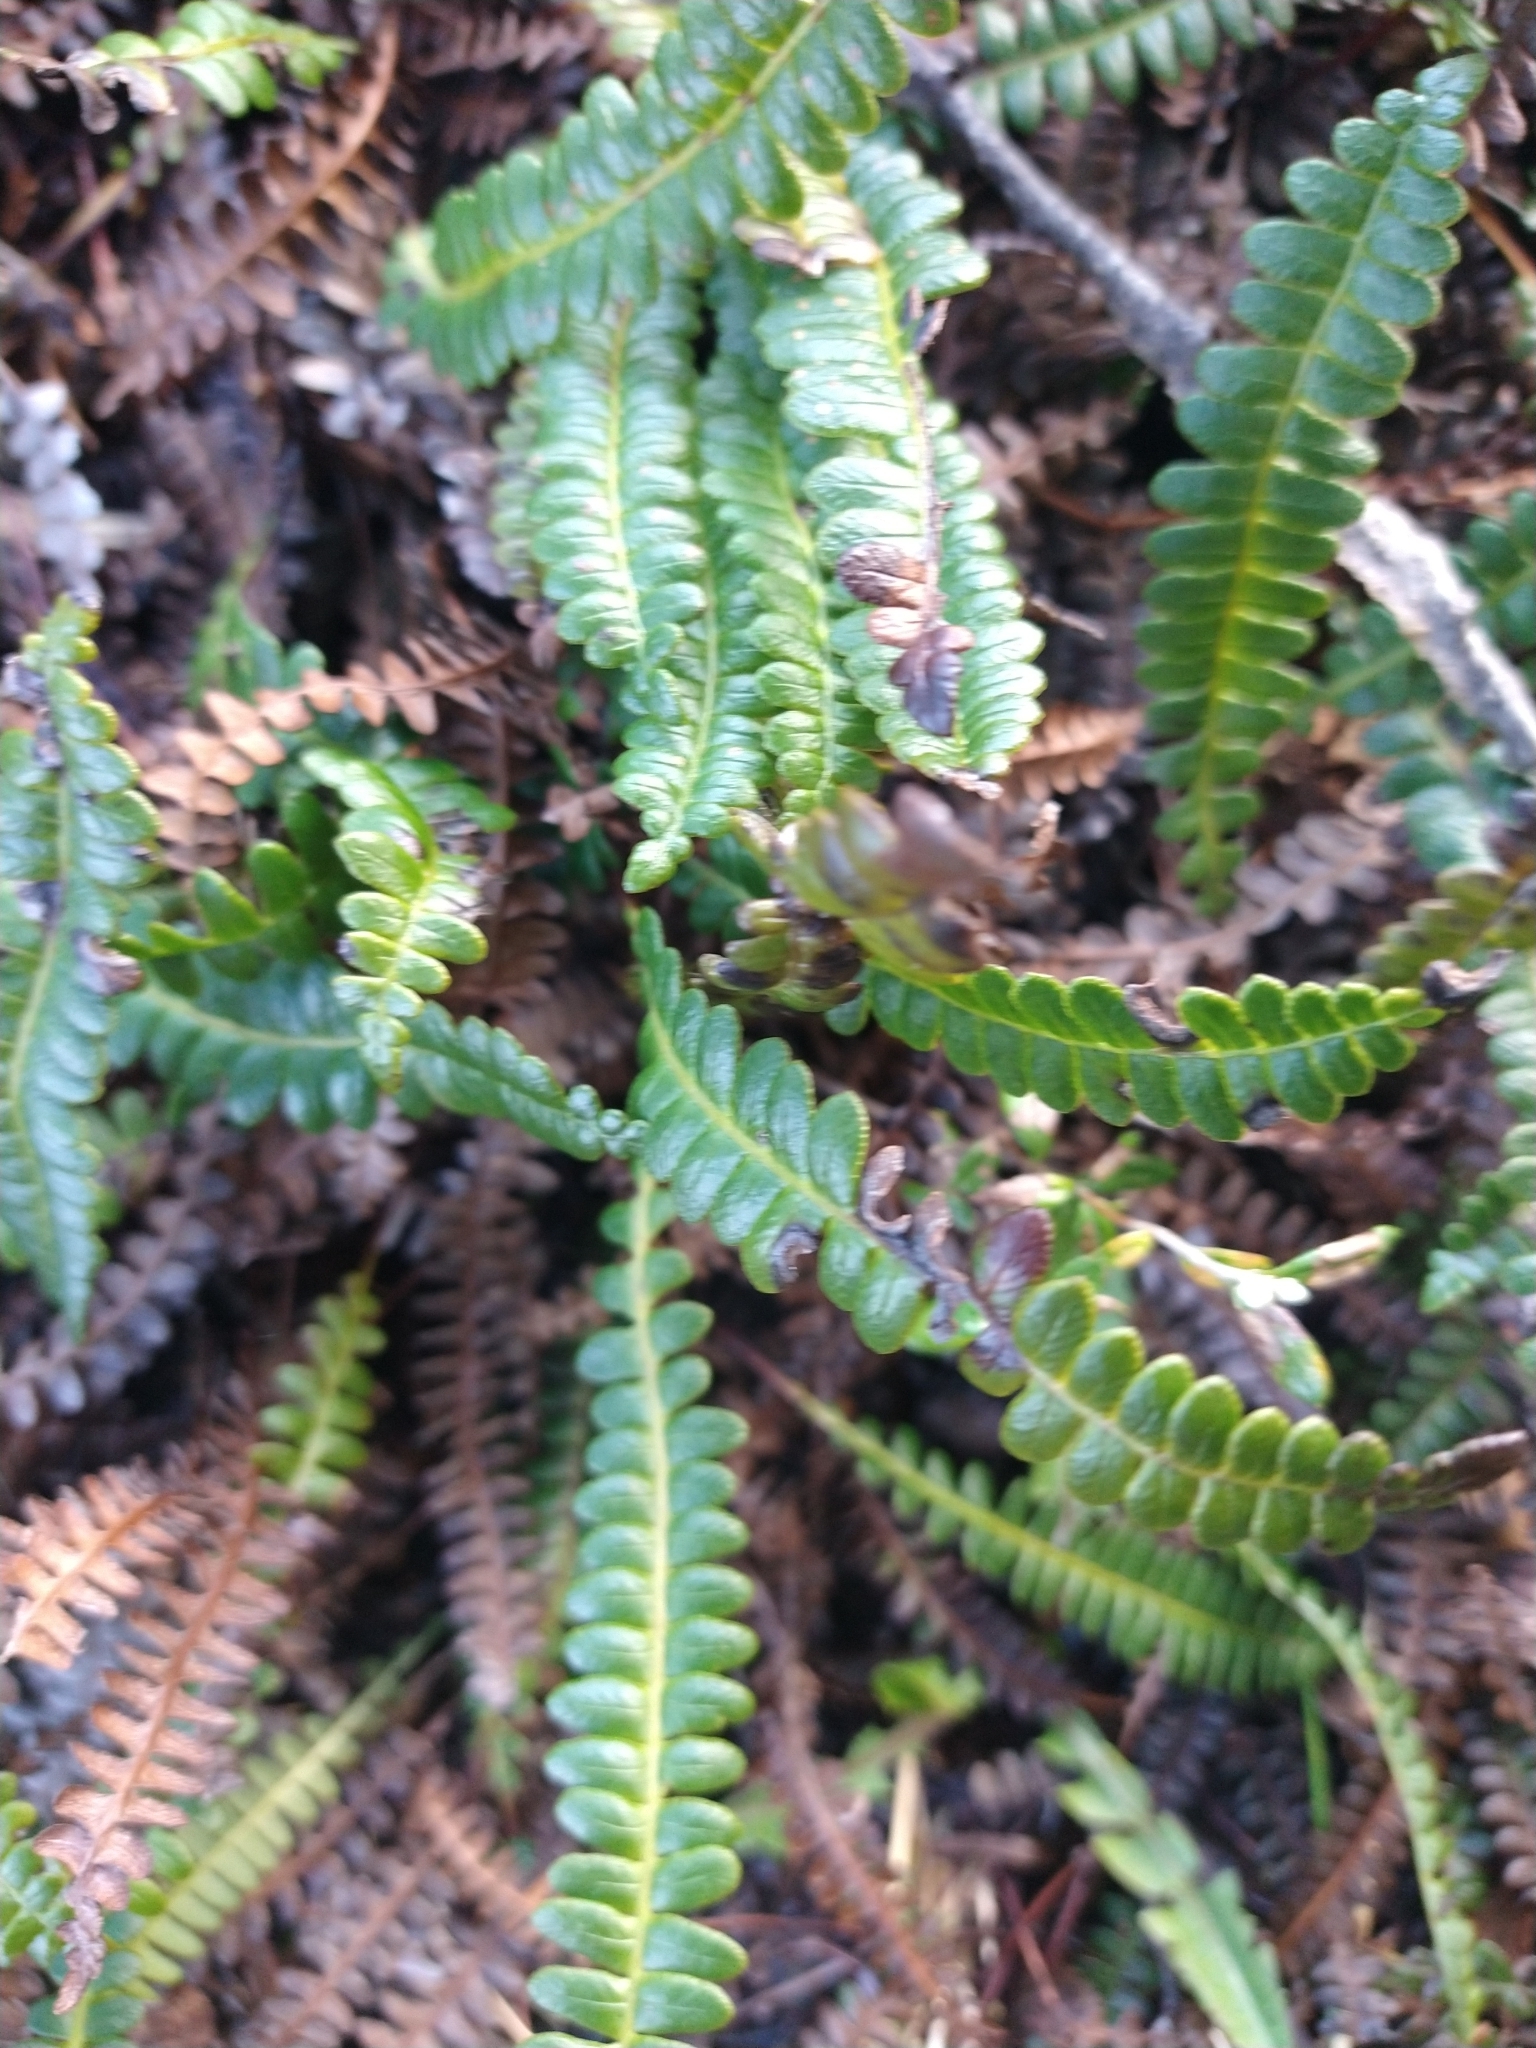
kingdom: Plantae
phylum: Tracheophyta
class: Polypodiopsida
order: Polypodiales
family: Blechnaceae
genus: Austroblechnum
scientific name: Austroblechnum penna-marina
